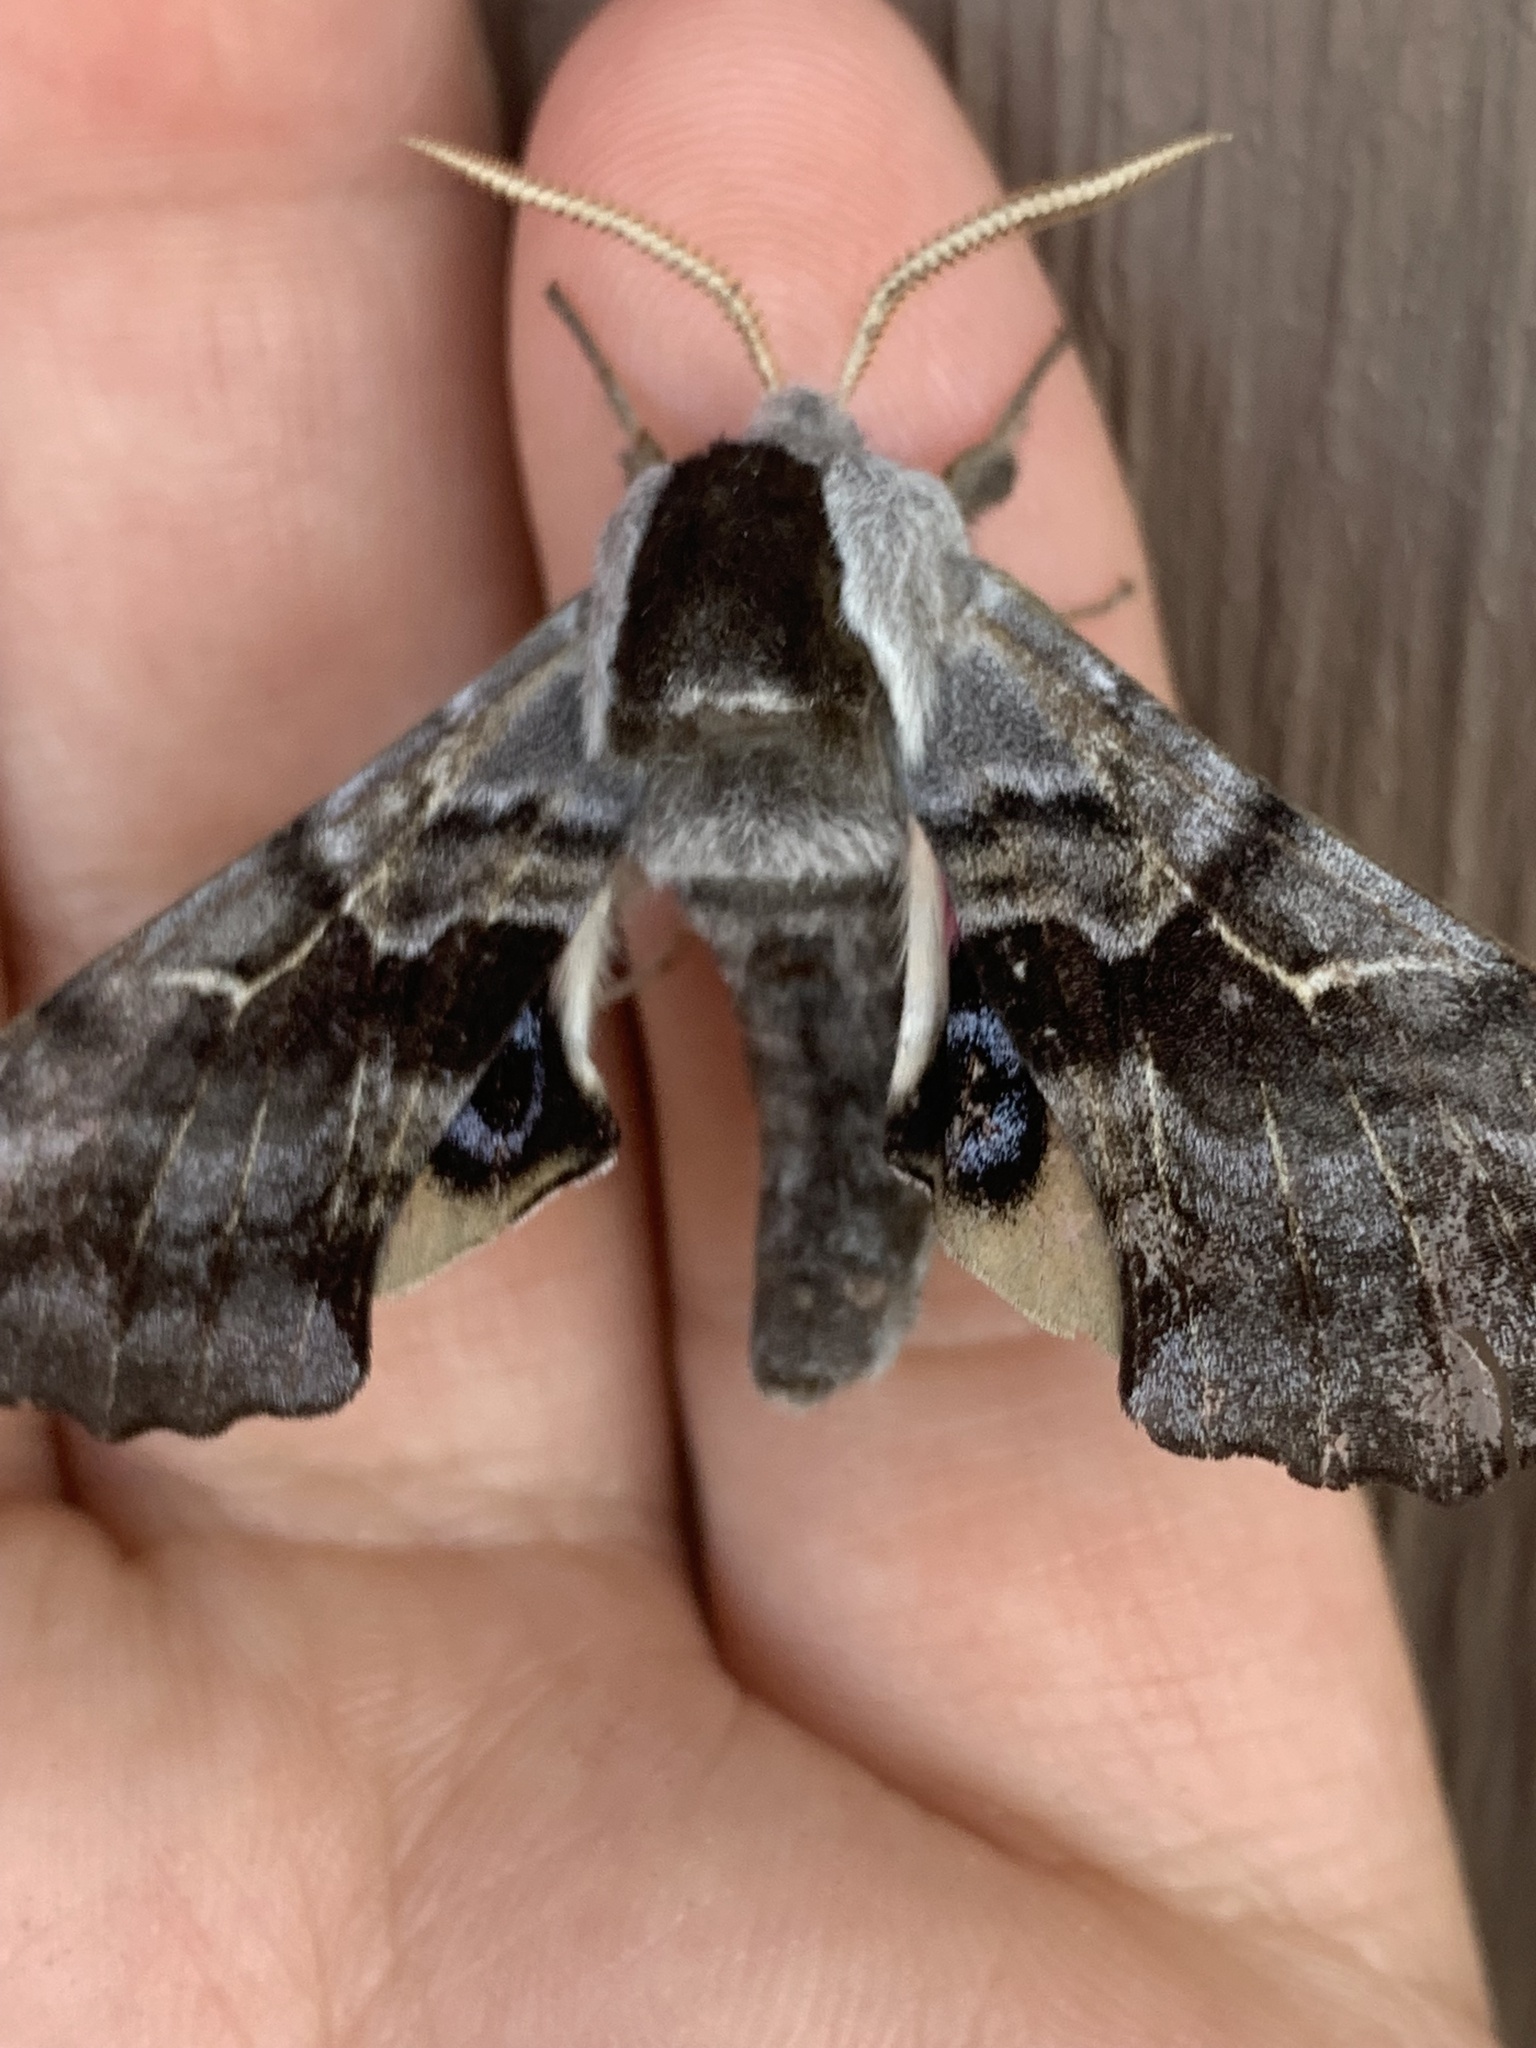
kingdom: Animalia
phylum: Arthropoda
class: Insecta
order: Lepidoptera
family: Sphingidae
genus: Smerinthus
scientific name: Smerinthus cerisyi
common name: Cerisy's sphinx moth
